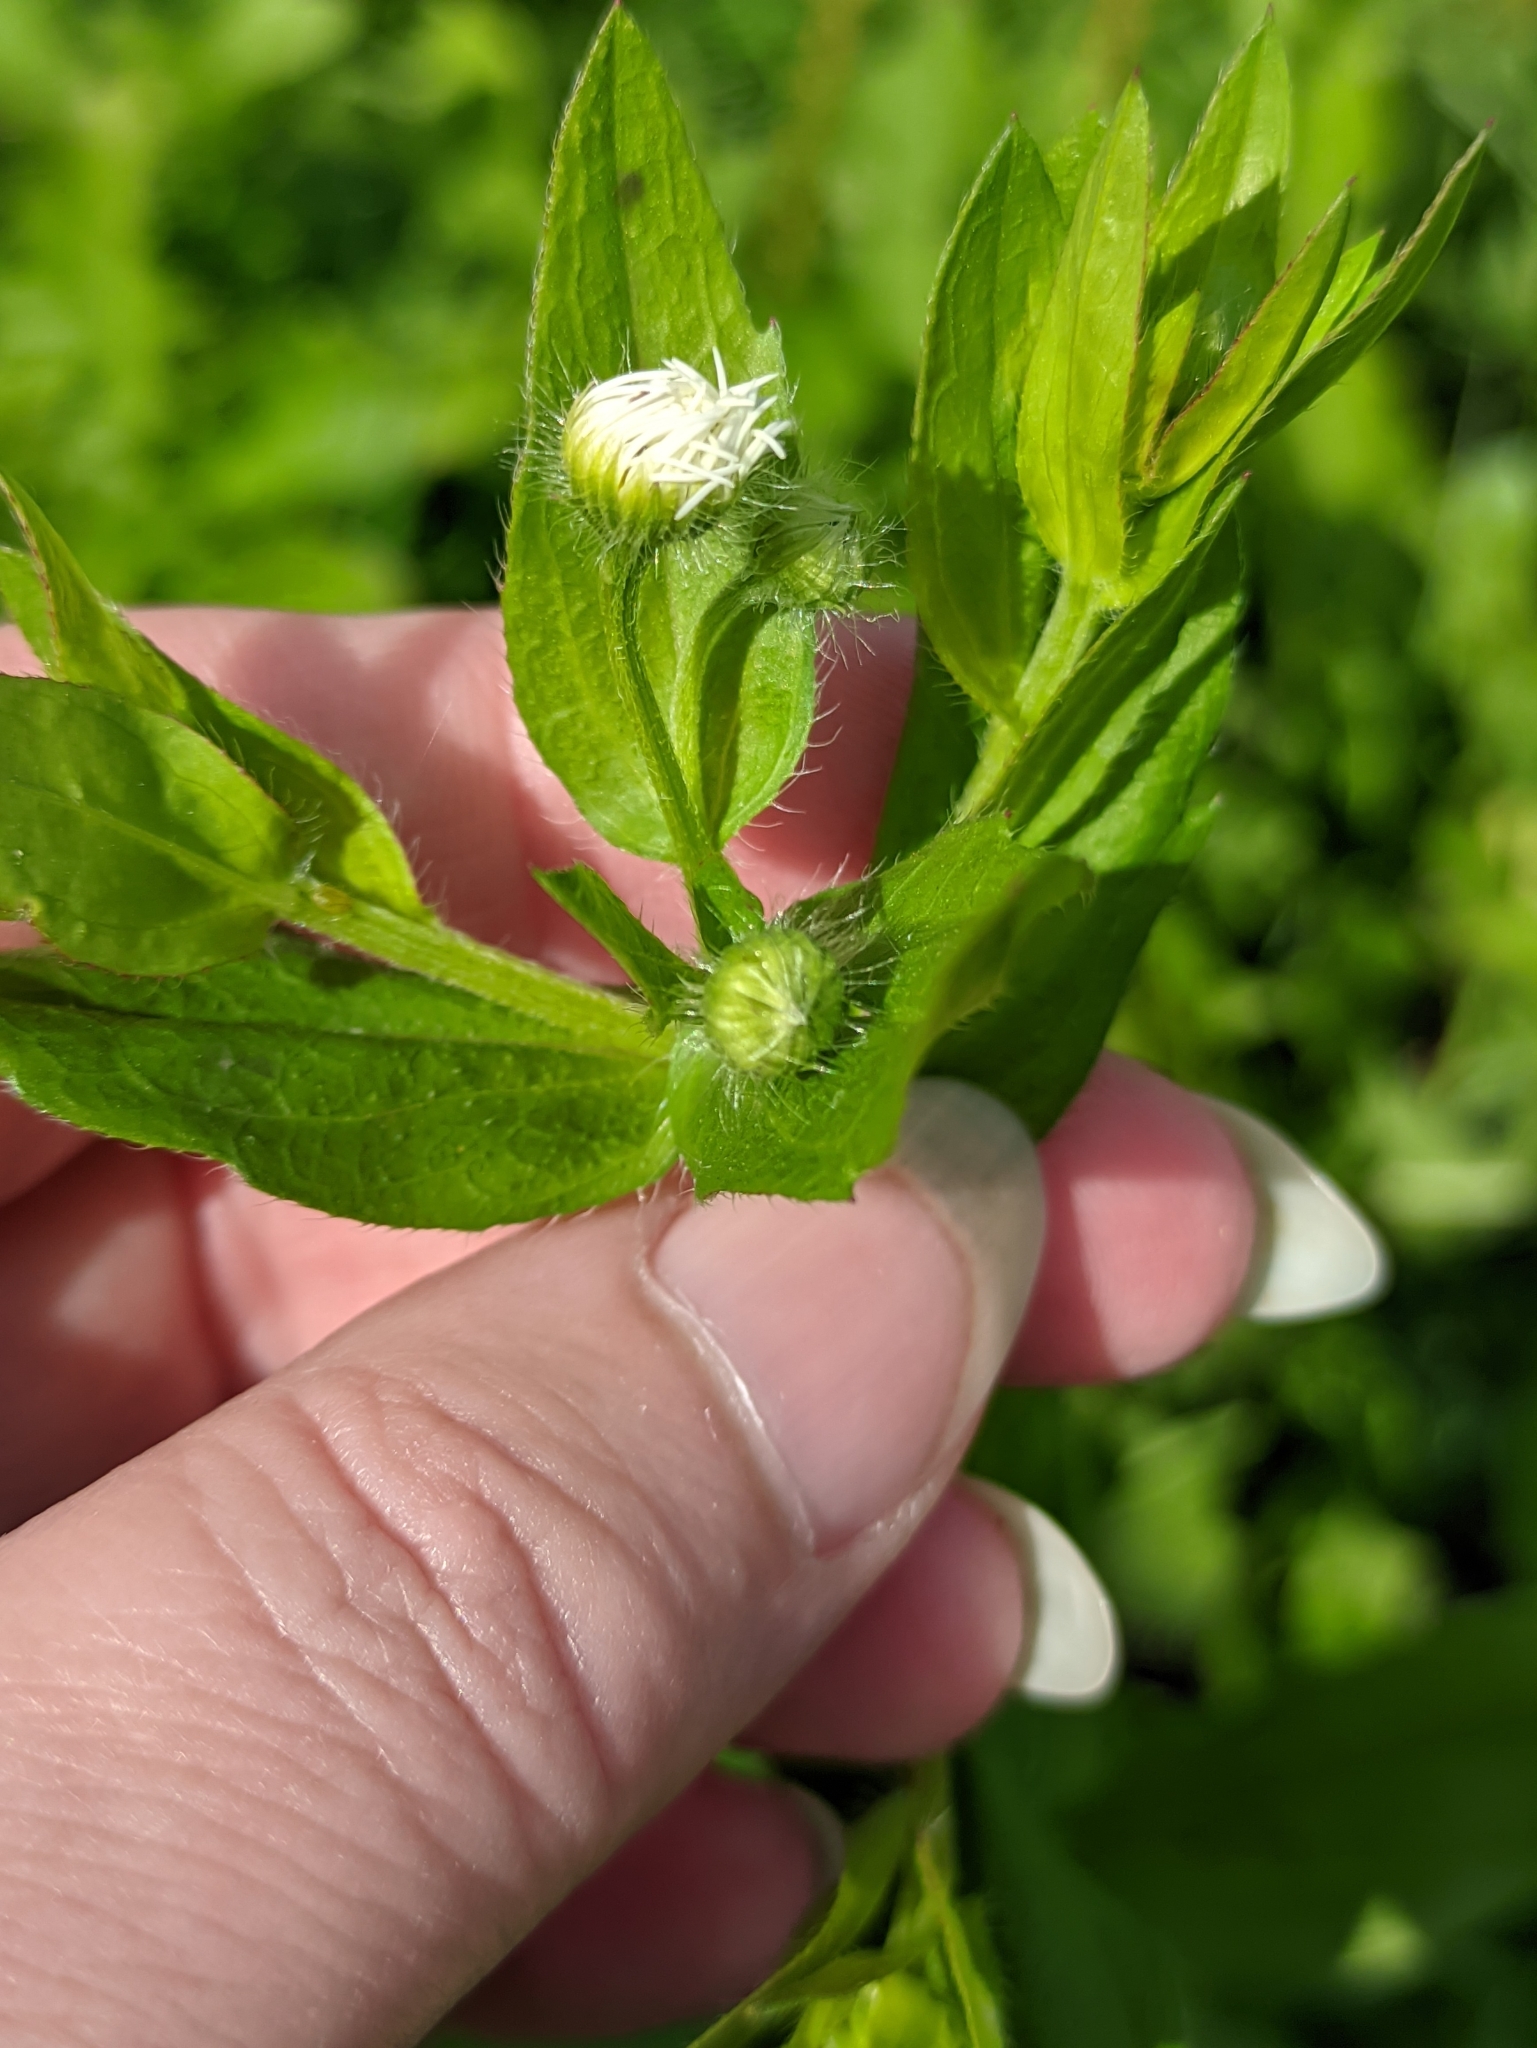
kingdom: Plantae
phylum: Tracheophyta
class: Magnoliopsida
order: Asterales
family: Asteraceae
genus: Erigeron
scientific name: Erigeron annuus
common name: Tall fleabane
